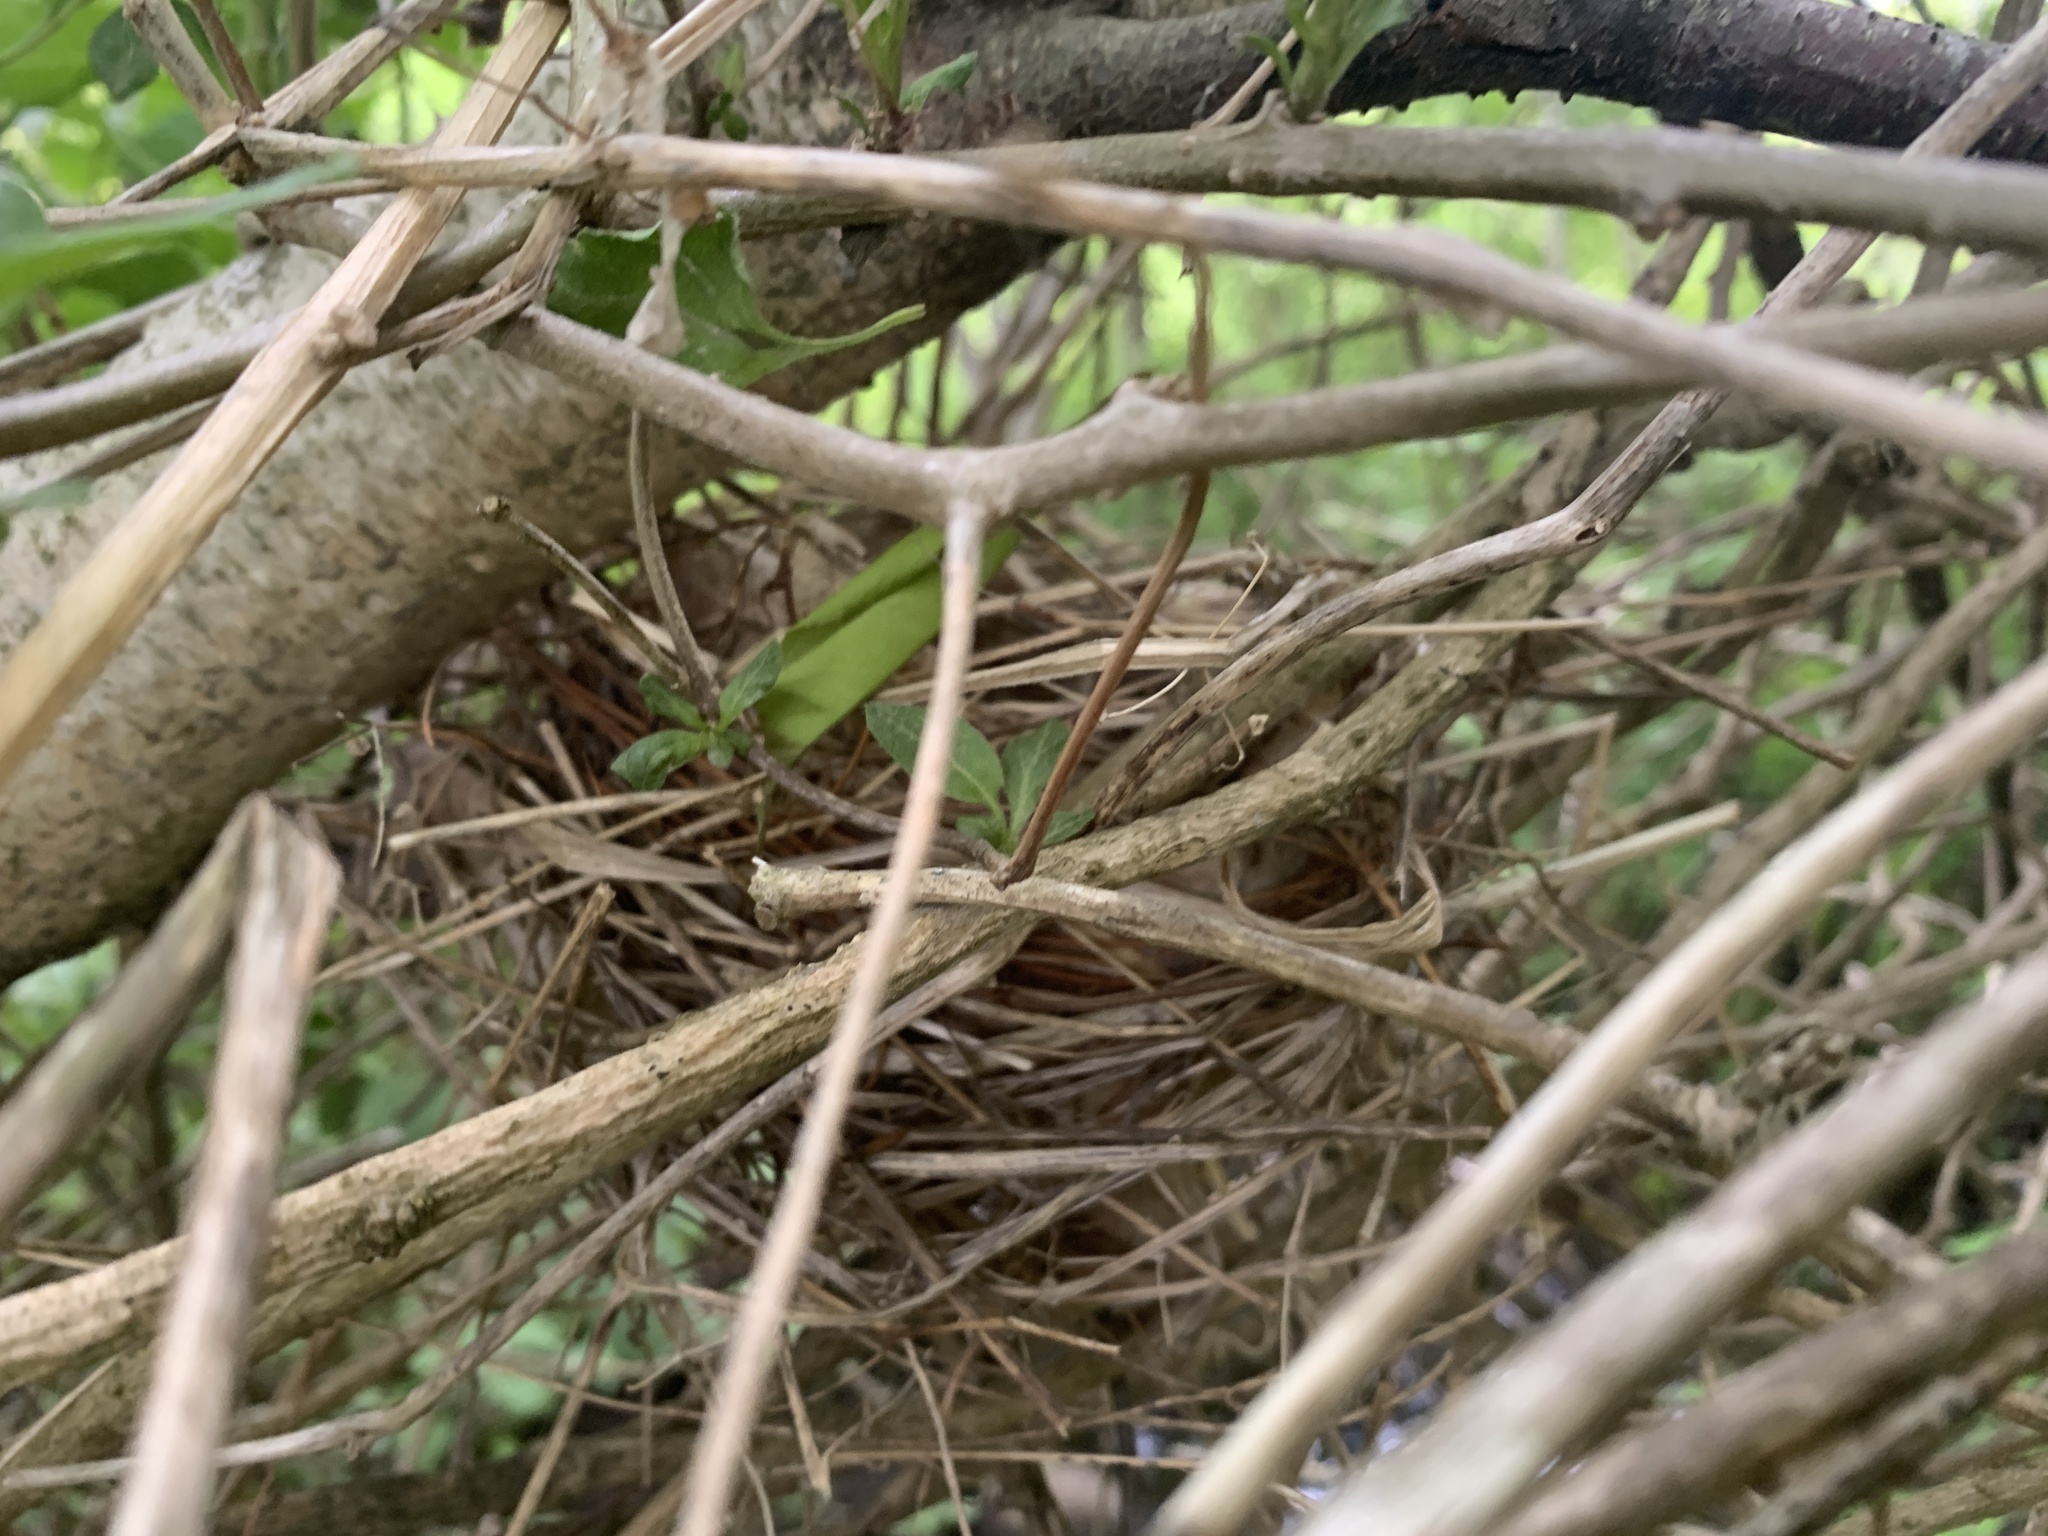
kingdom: Animalia
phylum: Chordata
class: Aves
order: Passeriformes
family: Cardinalidae
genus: Cardinalis
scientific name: Cardinalis cardinalis
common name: Northern cardinal
